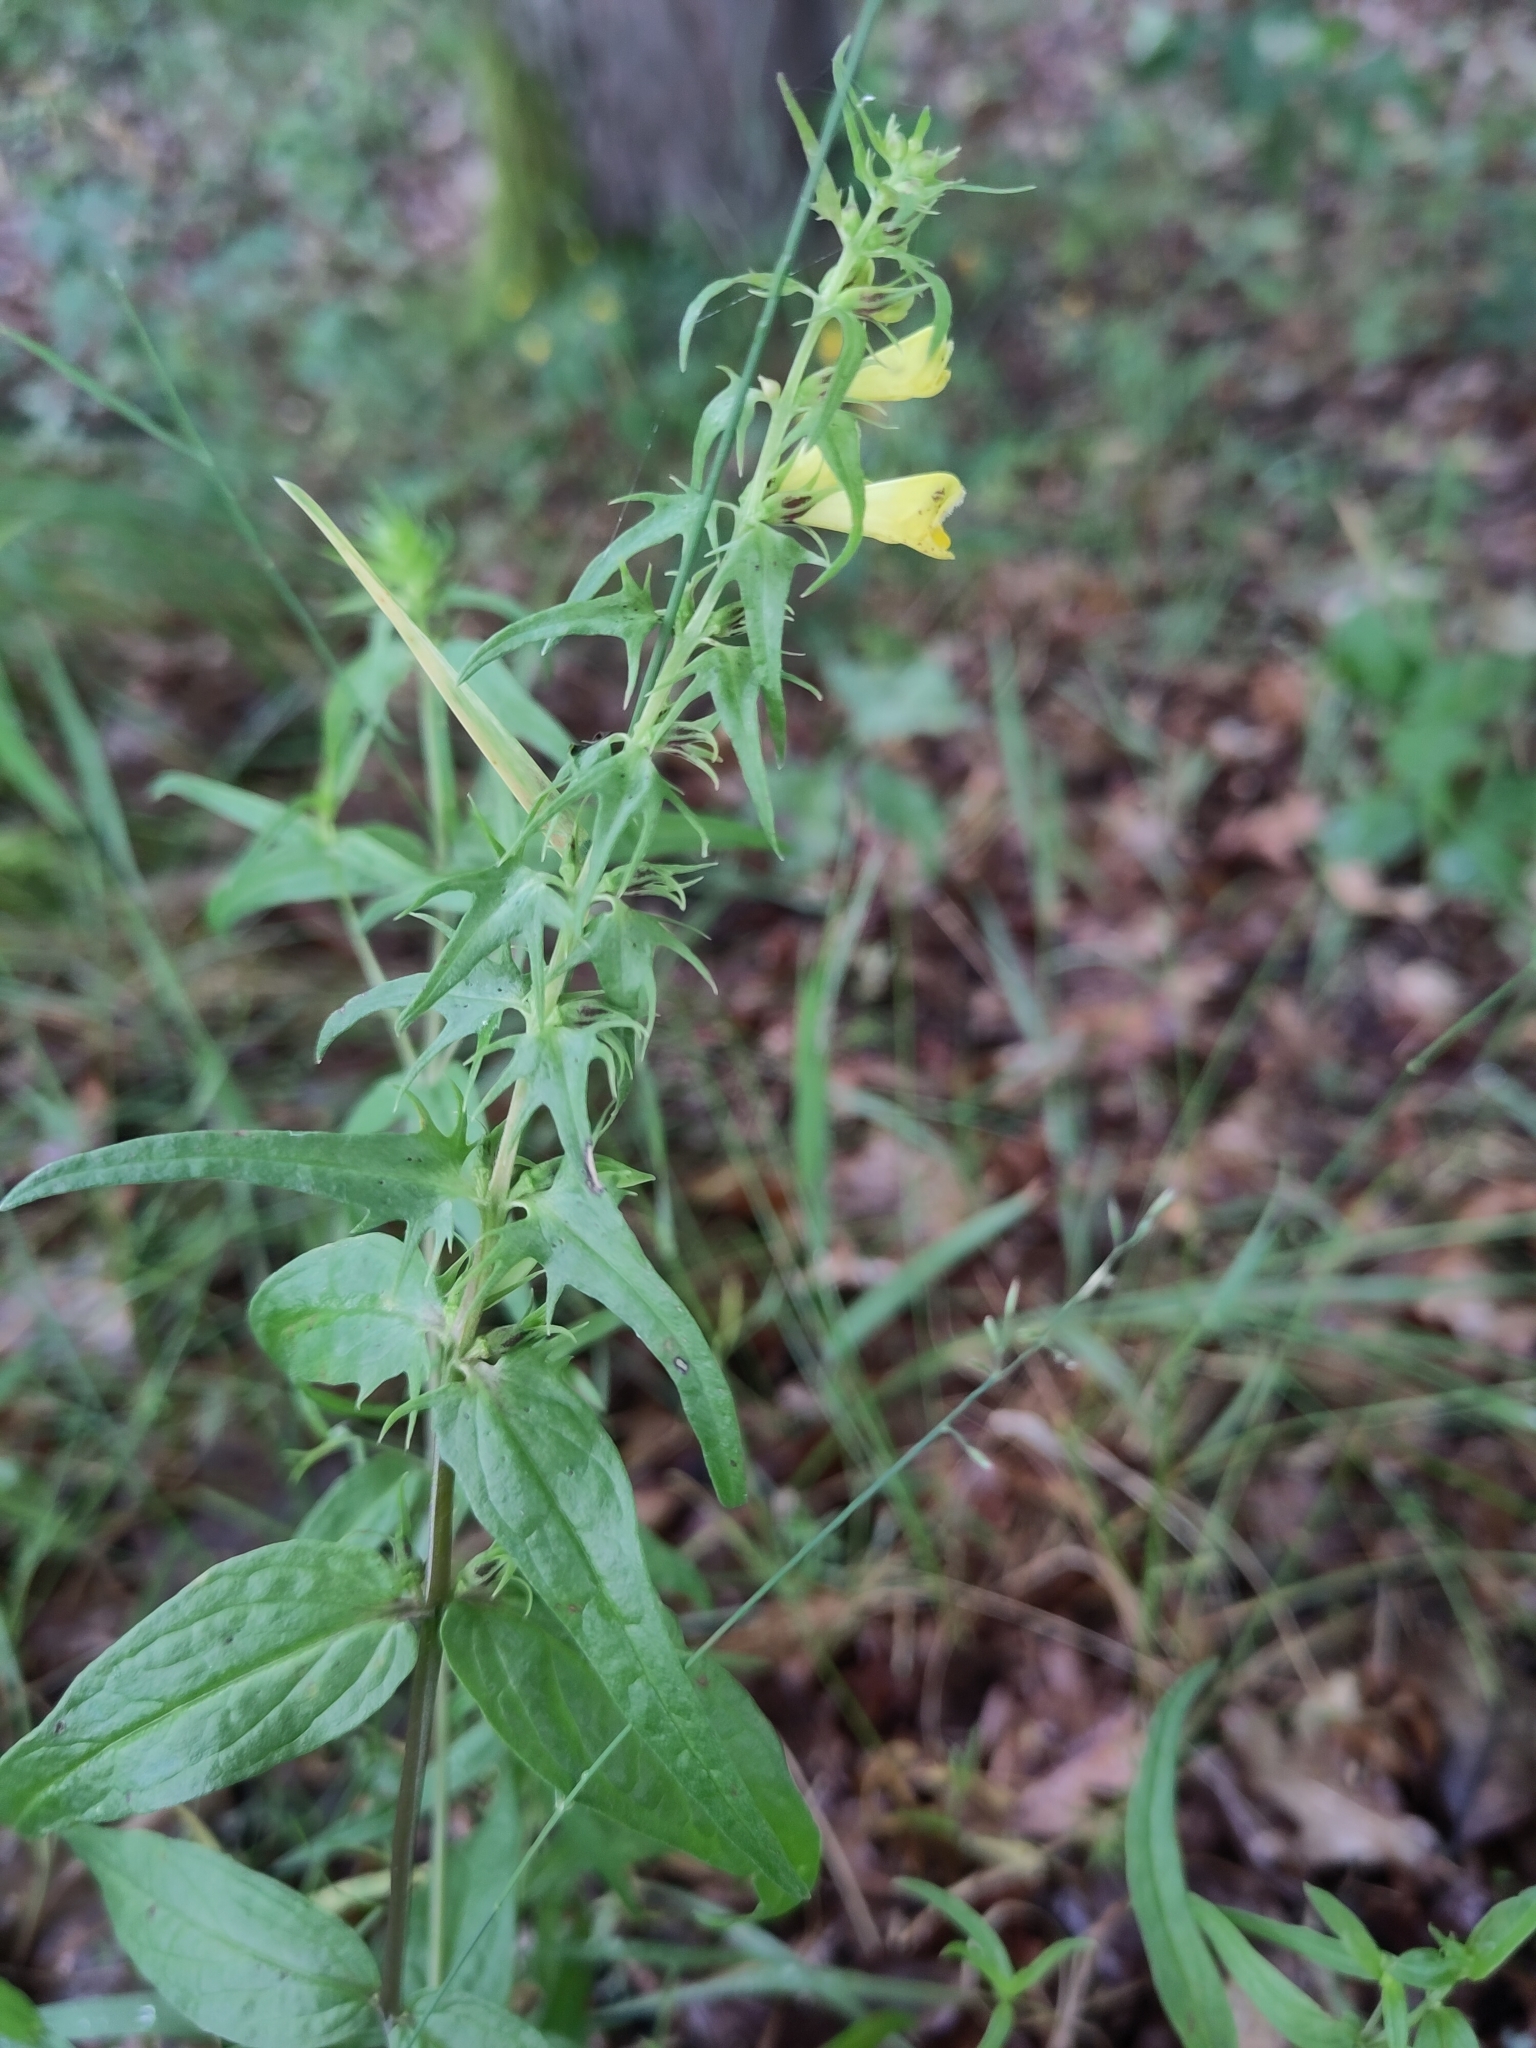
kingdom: Plantae
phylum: Tracheophyta
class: Magnoliopsida
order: Lamiales
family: Orobanchaceae
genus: Melampyrum
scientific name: Melampyrum pratense
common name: Common cow-wheat
